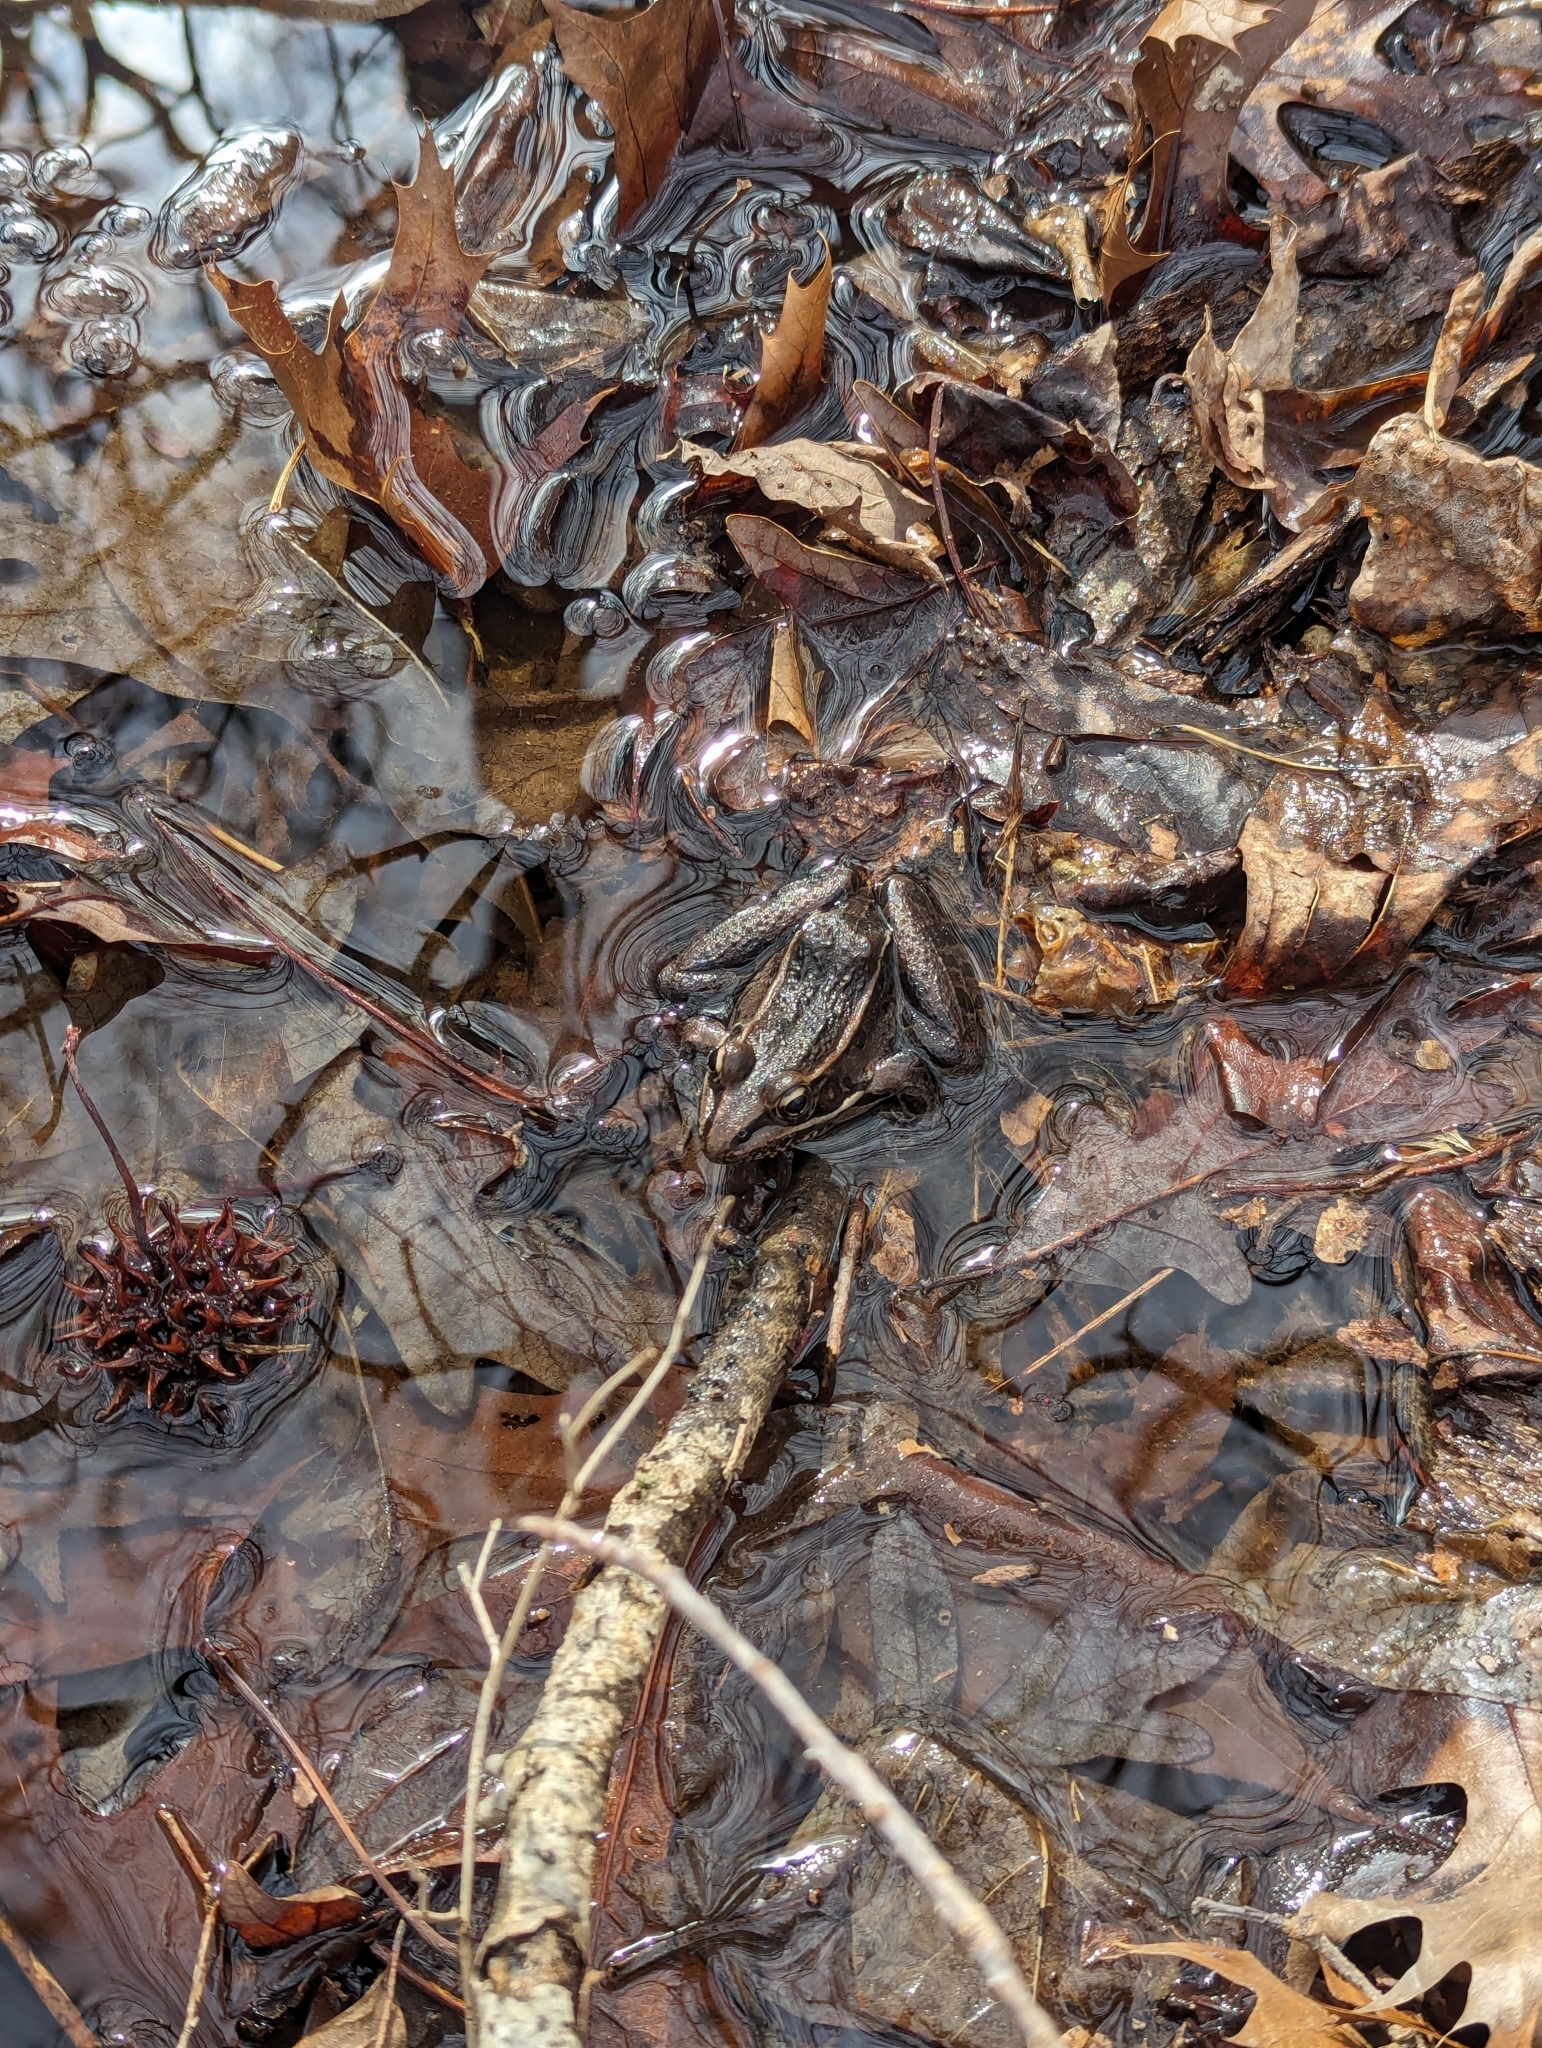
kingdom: Animalia
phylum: Chordata
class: Amphibia
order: Anura
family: Ranidae
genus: Lithobates
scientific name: Lithobates sphenocephalus
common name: Southern leopard frog
